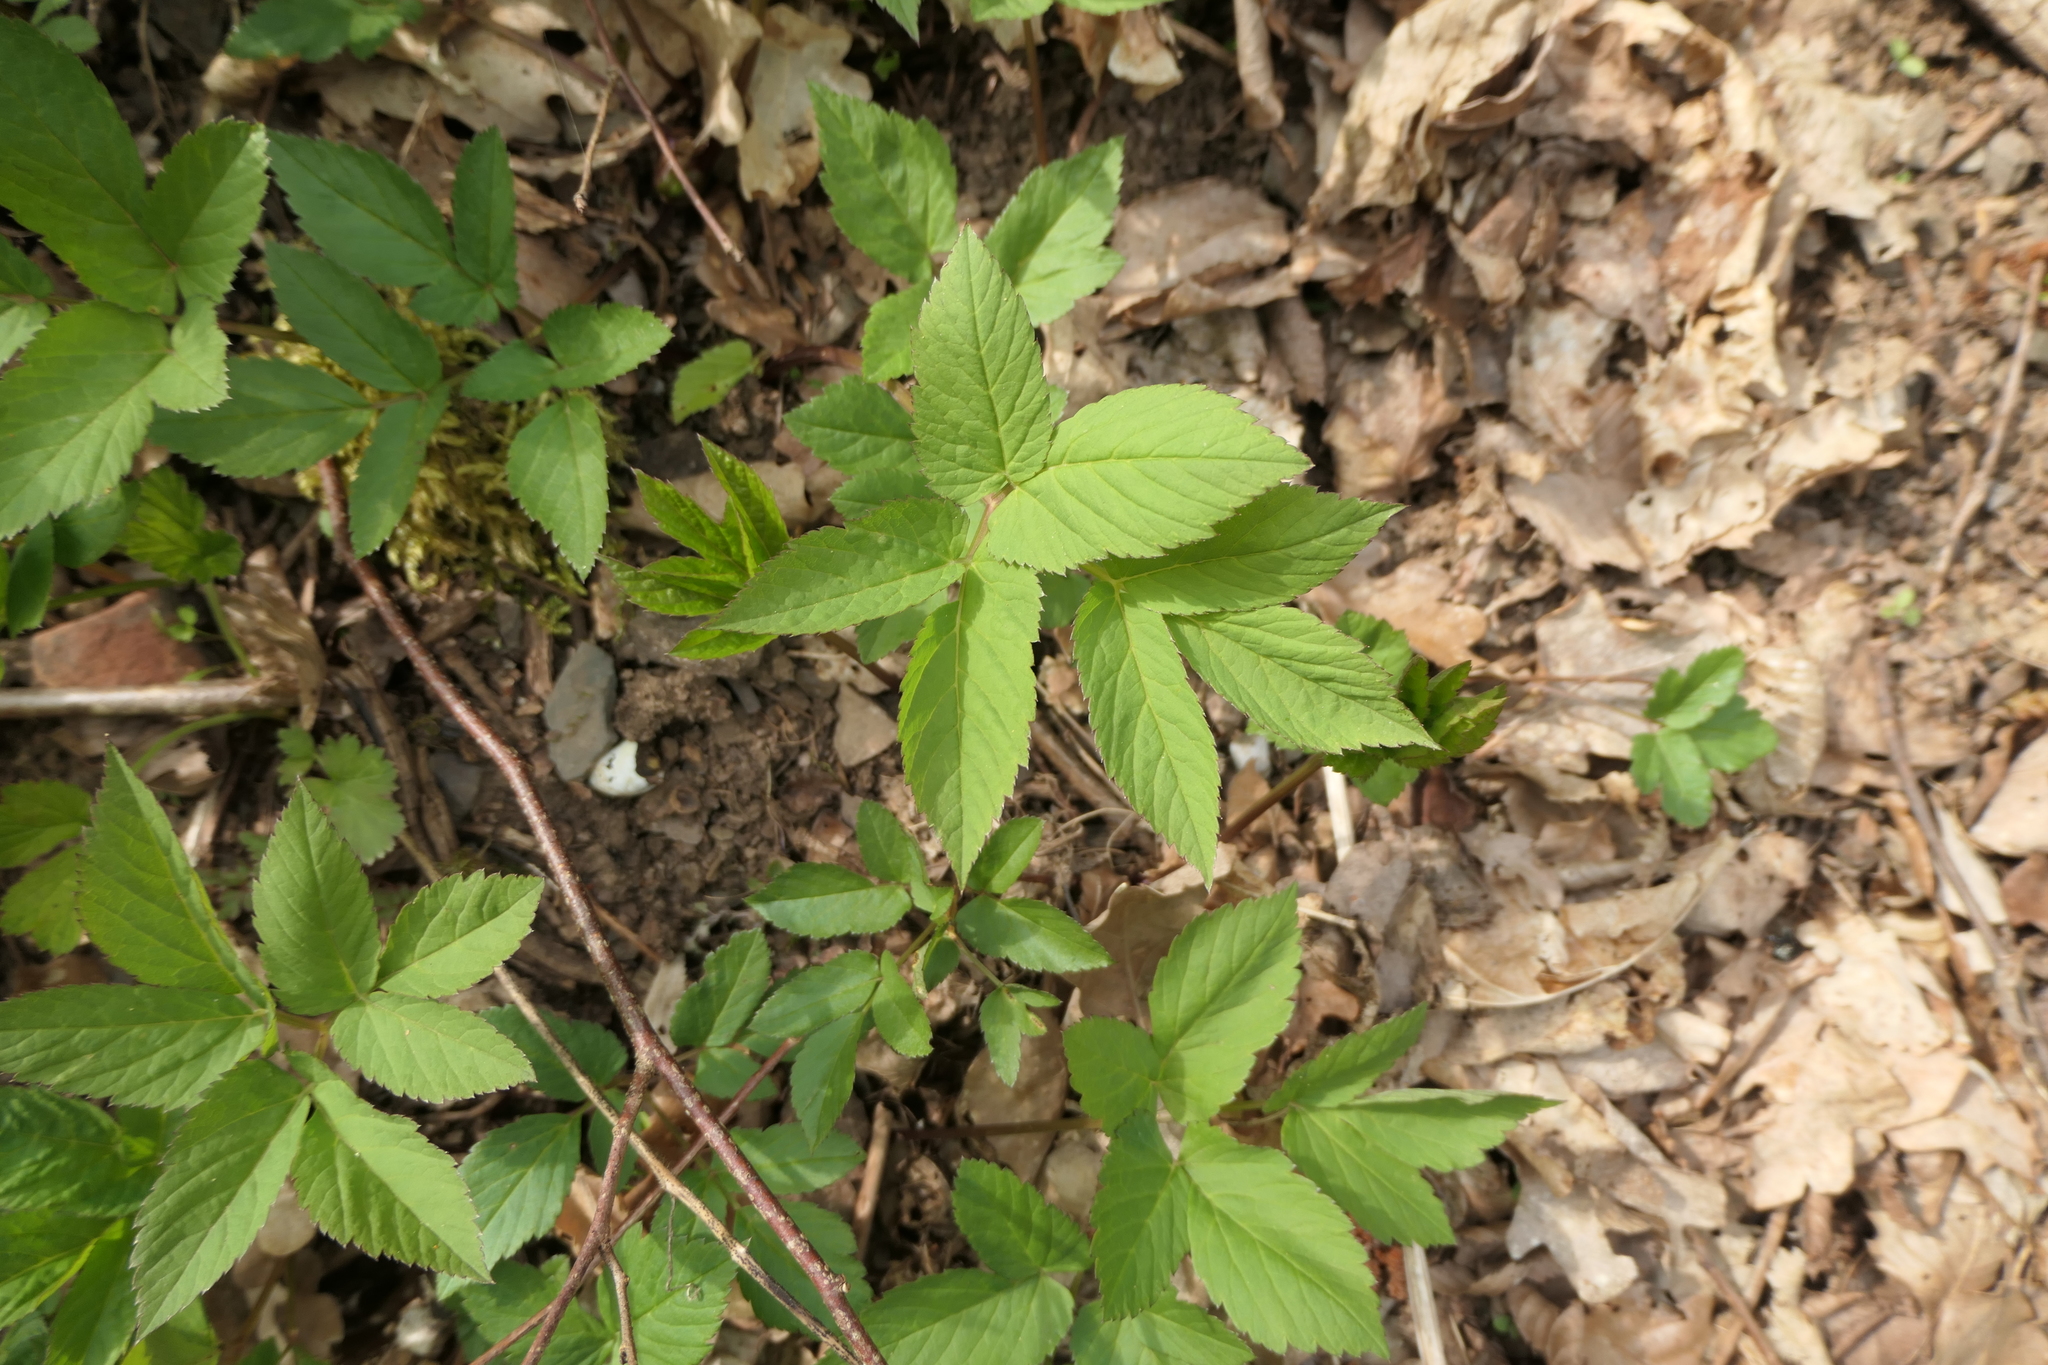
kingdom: Plantae
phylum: Tracheophyta
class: Magnoliopsida
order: Apiales
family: Apiaceae
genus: Aegopodium
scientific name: Aegopodium podagraria
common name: Ground-elder
